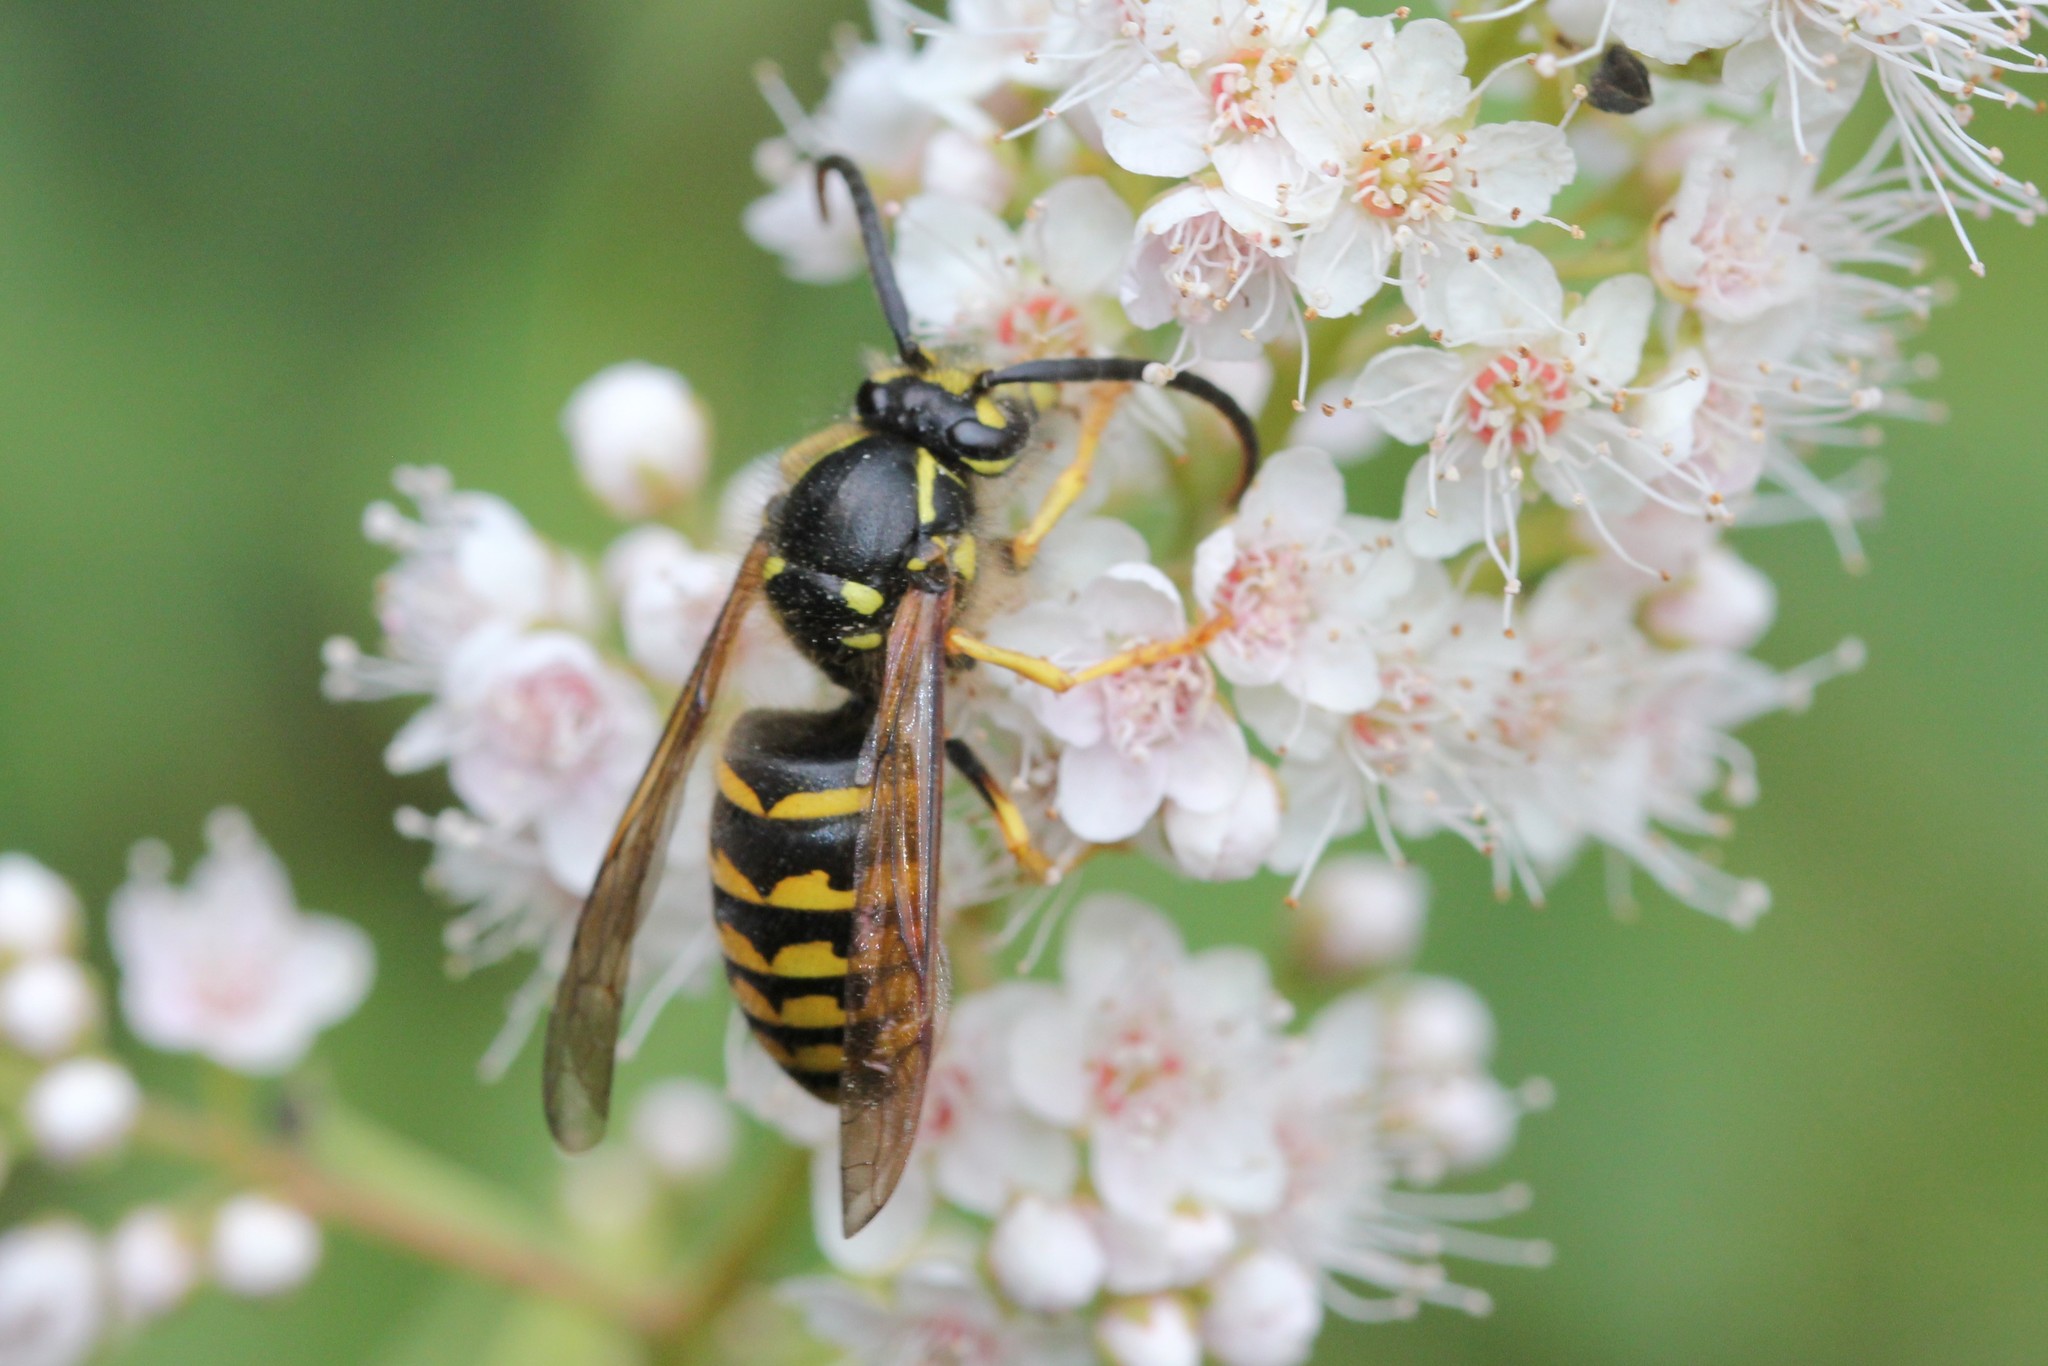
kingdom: Animalia
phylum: Arthropoda
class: Insecta
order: Hymenoptera
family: Vespidae
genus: Dolichovespula
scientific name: Dolichovespula arenaria
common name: Aerial yellowjacket
